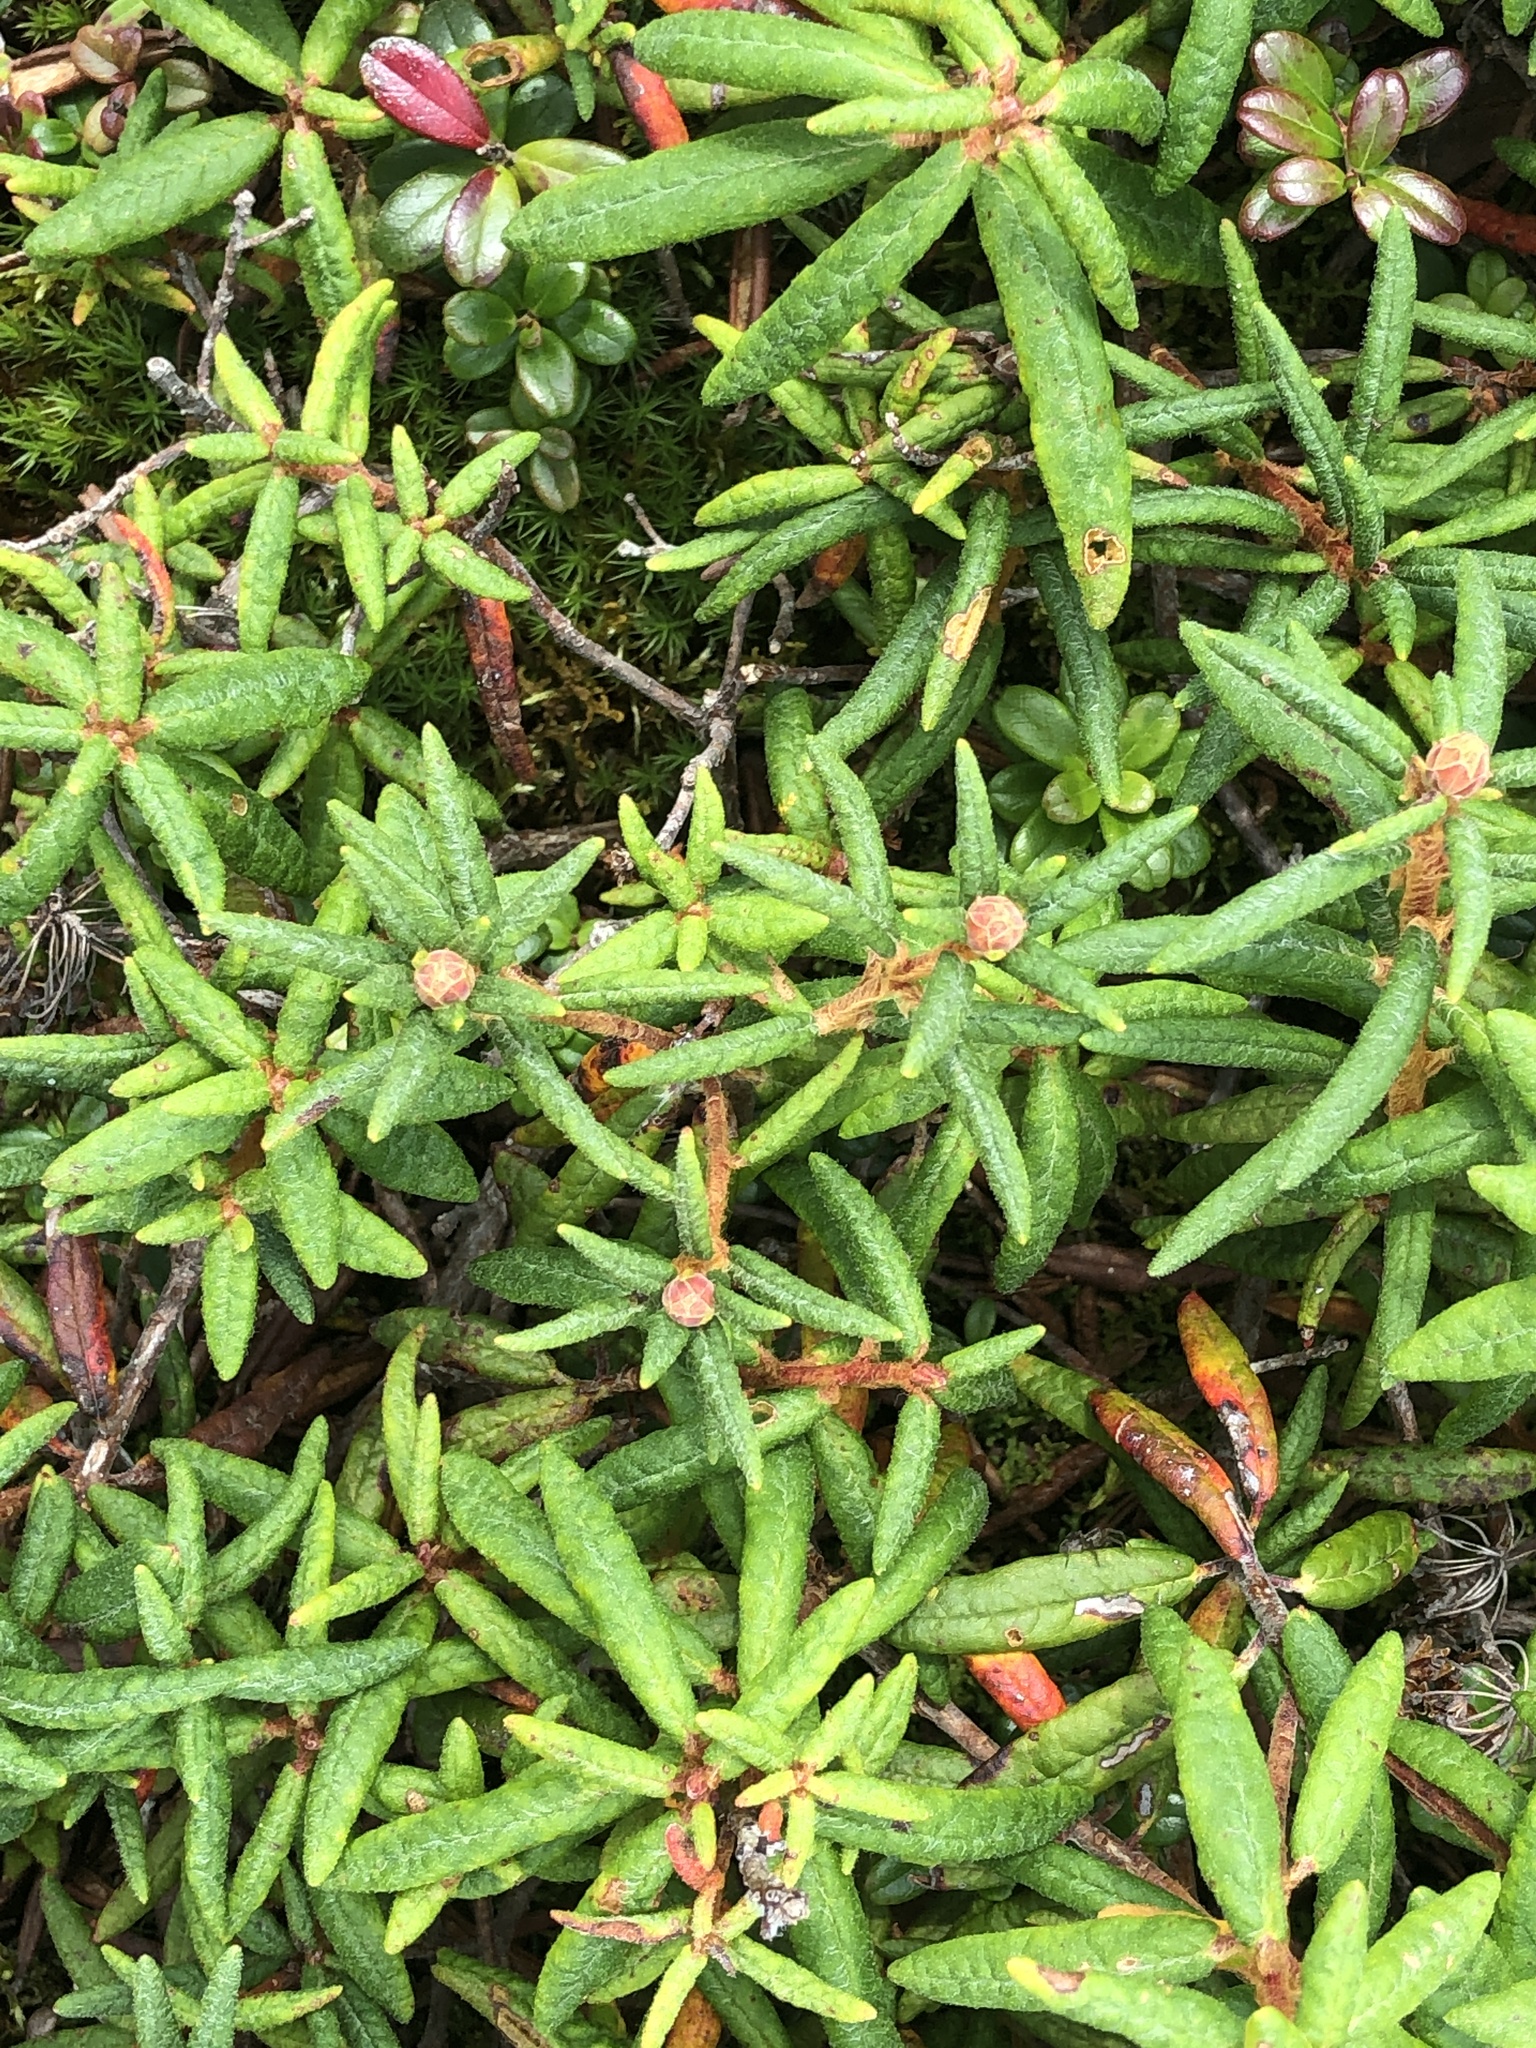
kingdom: Plantae
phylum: Tracheophyta
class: Magnoliopsida
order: Ericales
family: Ericaceae
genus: Rhododendron
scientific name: Rhododendron groenlandicum
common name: Bog labrador tea
